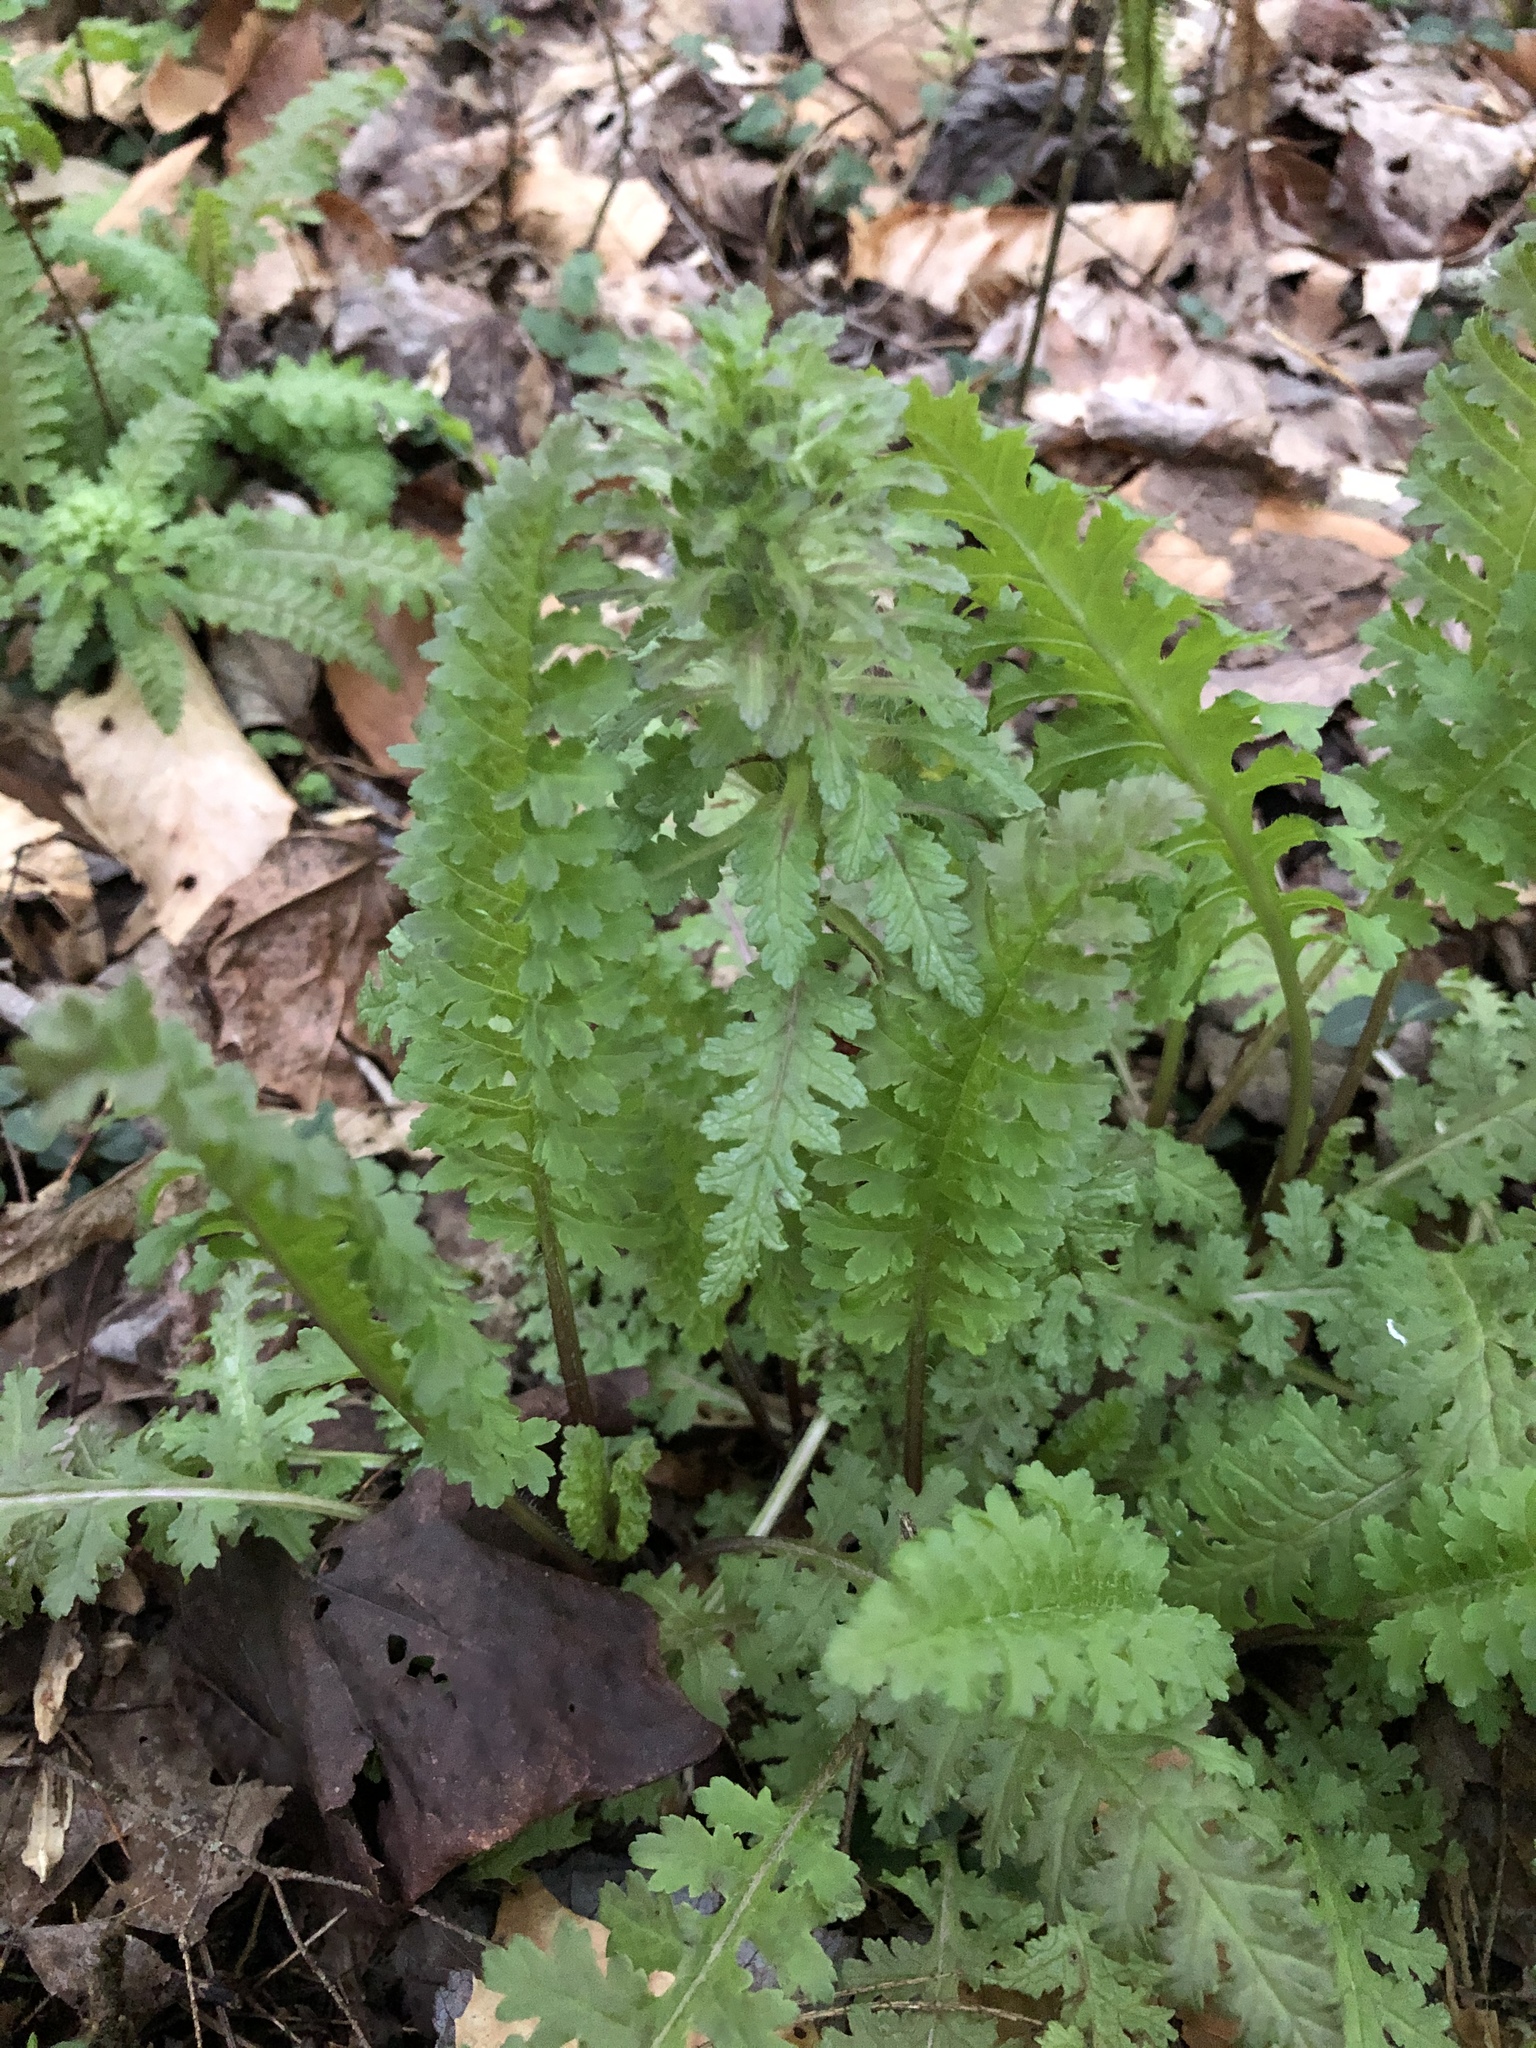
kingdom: Plantae
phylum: Tracheophyta
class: Magnoliopsida
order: Lamiales
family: Orobanchaceae
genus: Pedicularis
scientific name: Pedicularis canadensis
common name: Early lousewort
